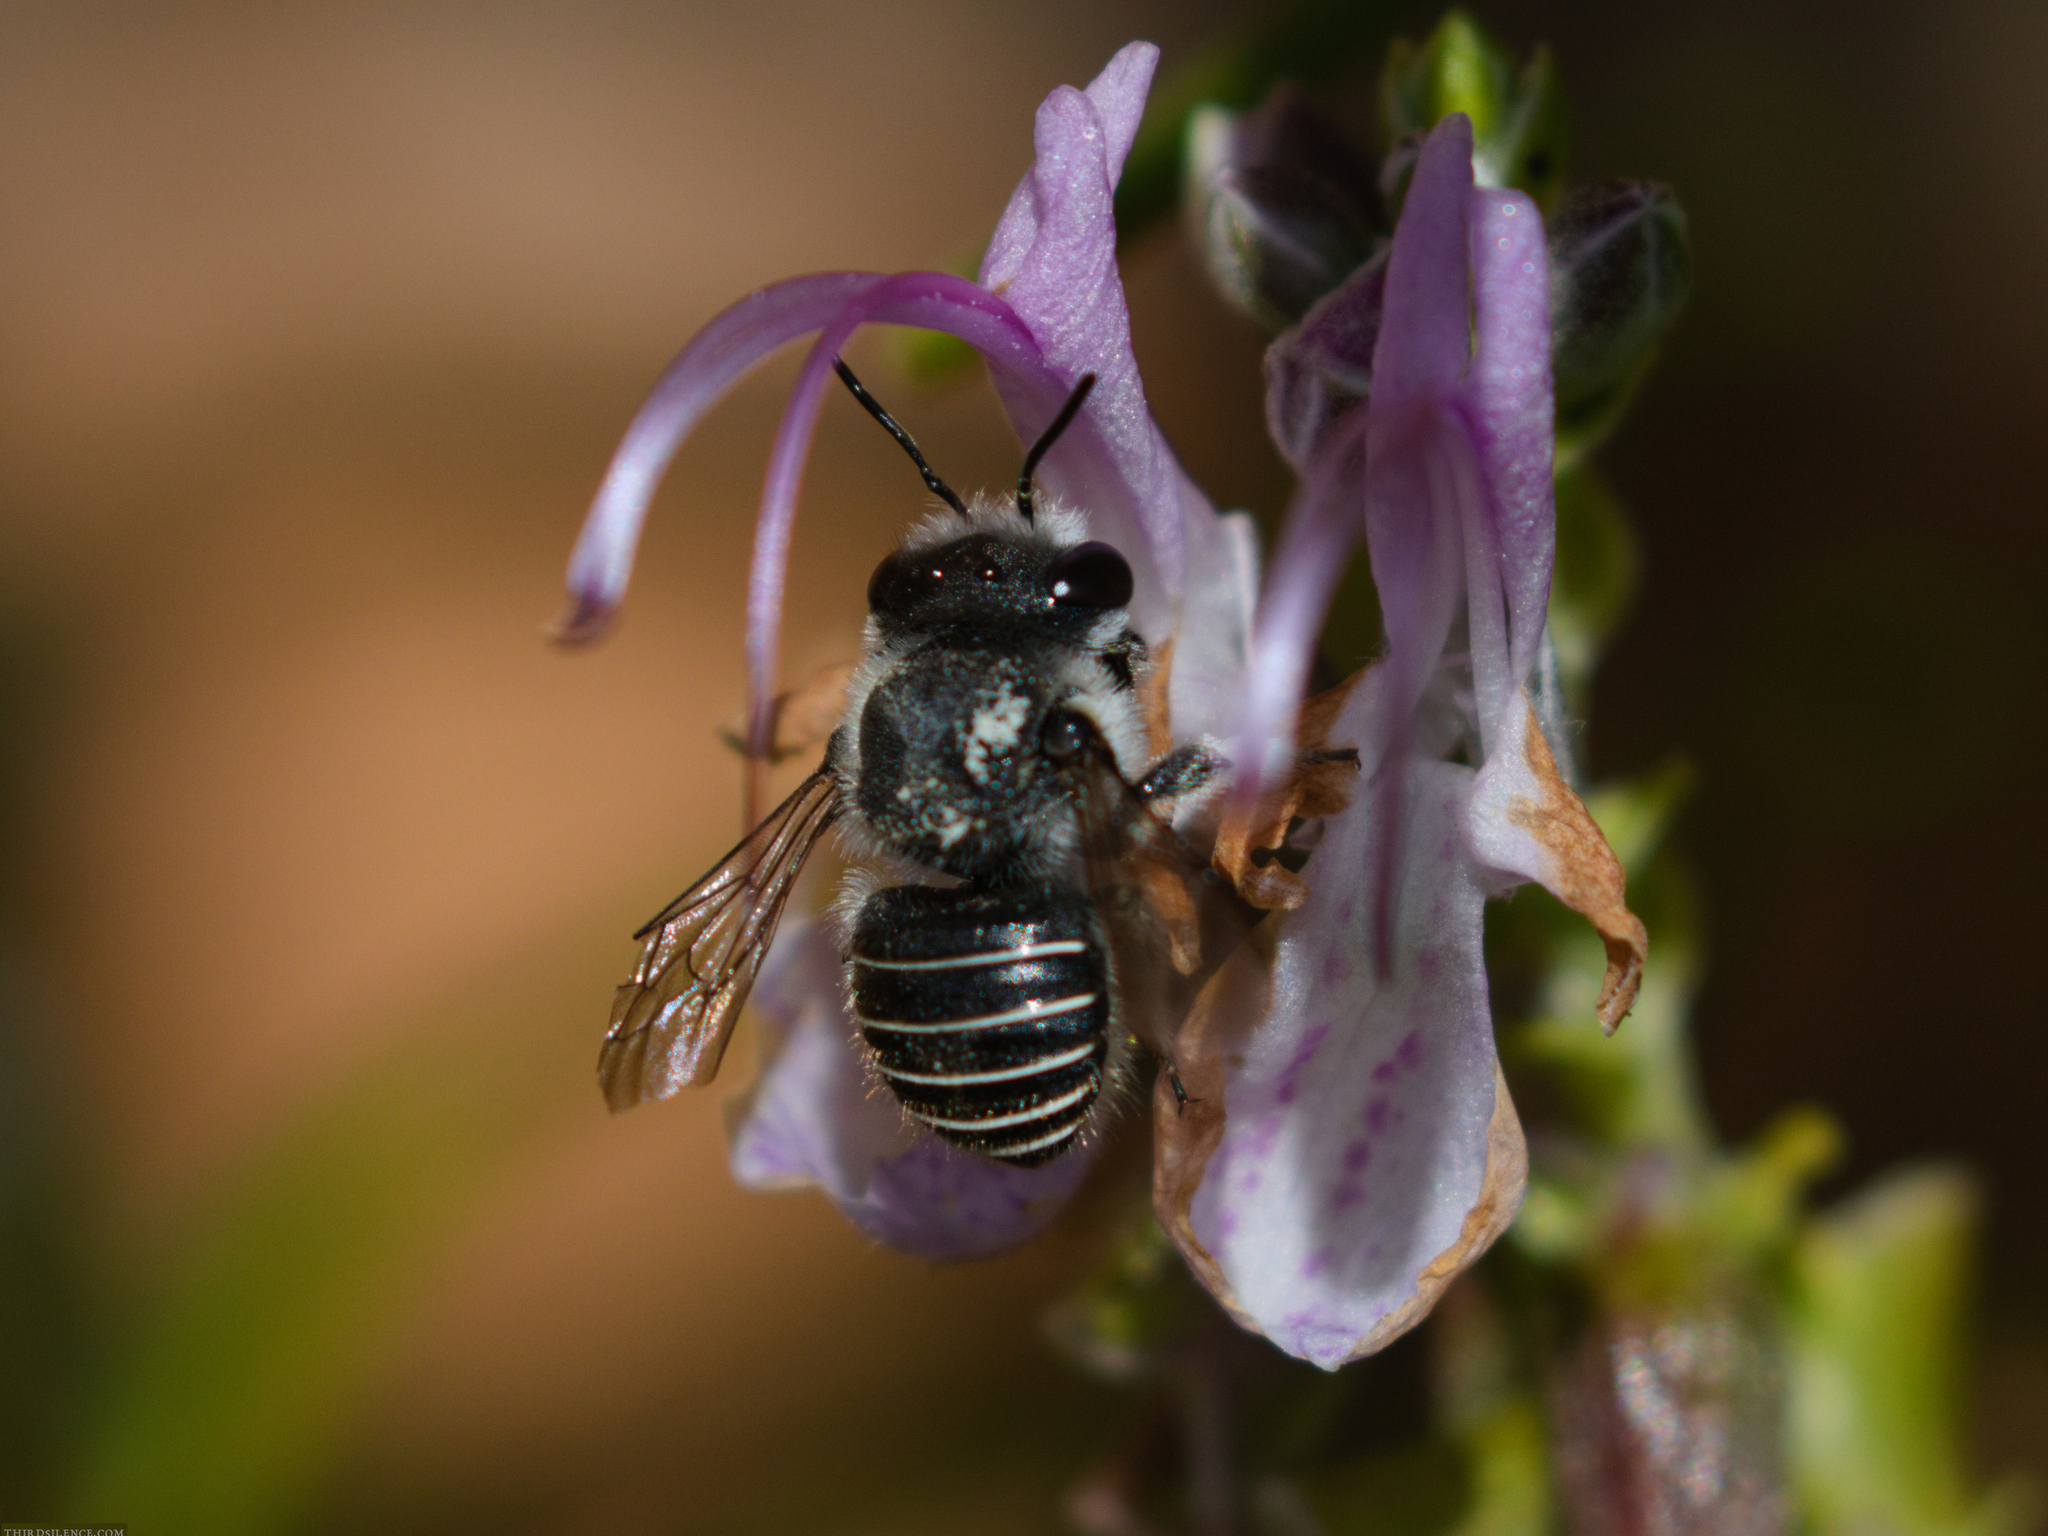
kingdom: Animalia
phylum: Arthropoda
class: Insecta
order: Hymenoptera
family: Megachilidae
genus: Pseudoanthidium
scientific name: Pseudoanthidium repetitum
